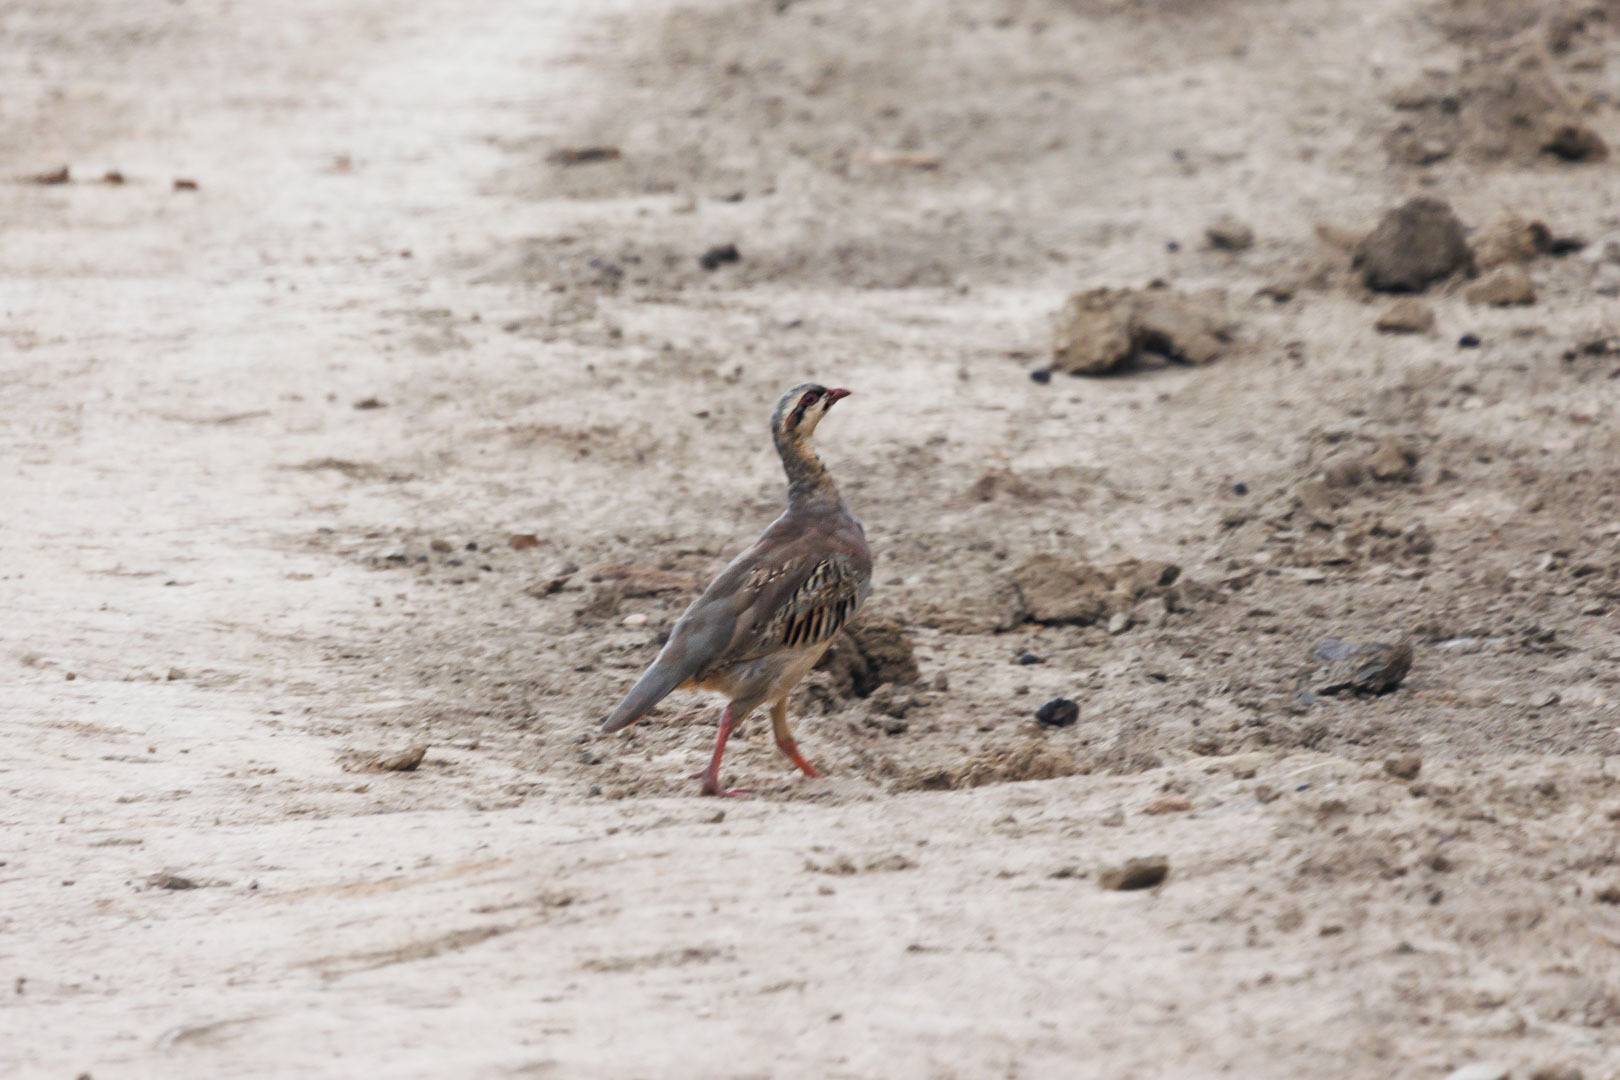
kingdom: Animalia
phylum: Chordata
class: Aves
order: Galliformes
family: Phasianidae
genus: Alectoris
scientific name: Alectoris chukar
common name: Chukar
